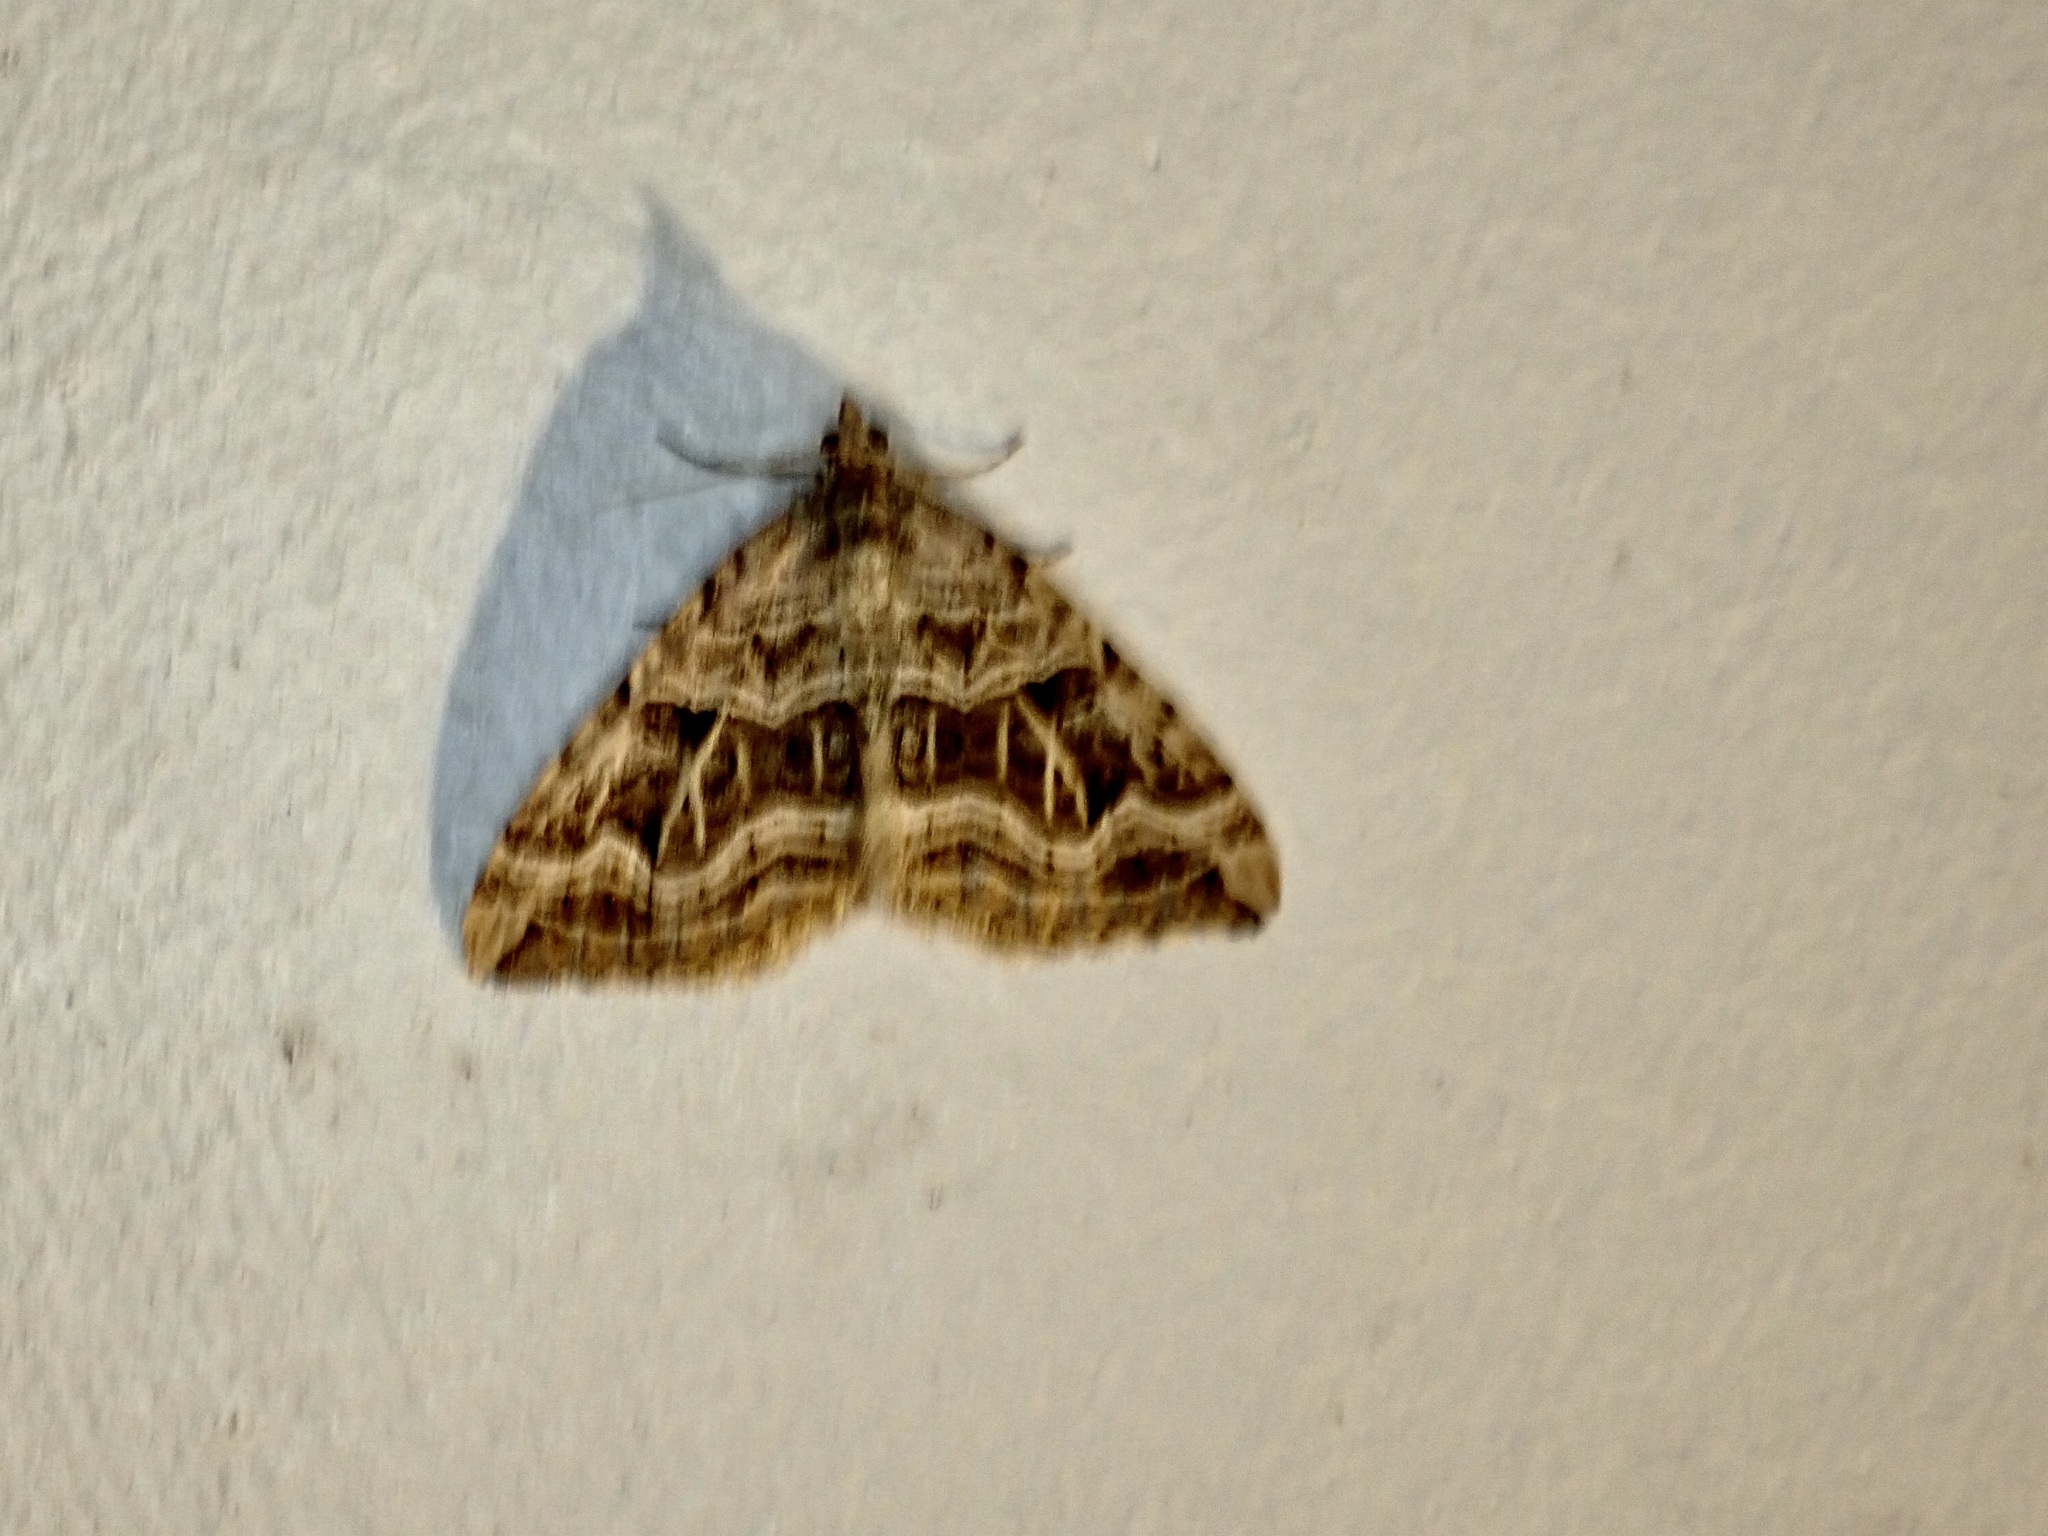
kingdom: Animalia
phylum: Arthropoda
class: Insecta
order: Lepidoptera
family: Geometridae
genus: Xanthorhoe
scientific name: Xanthorhoe semifissata
